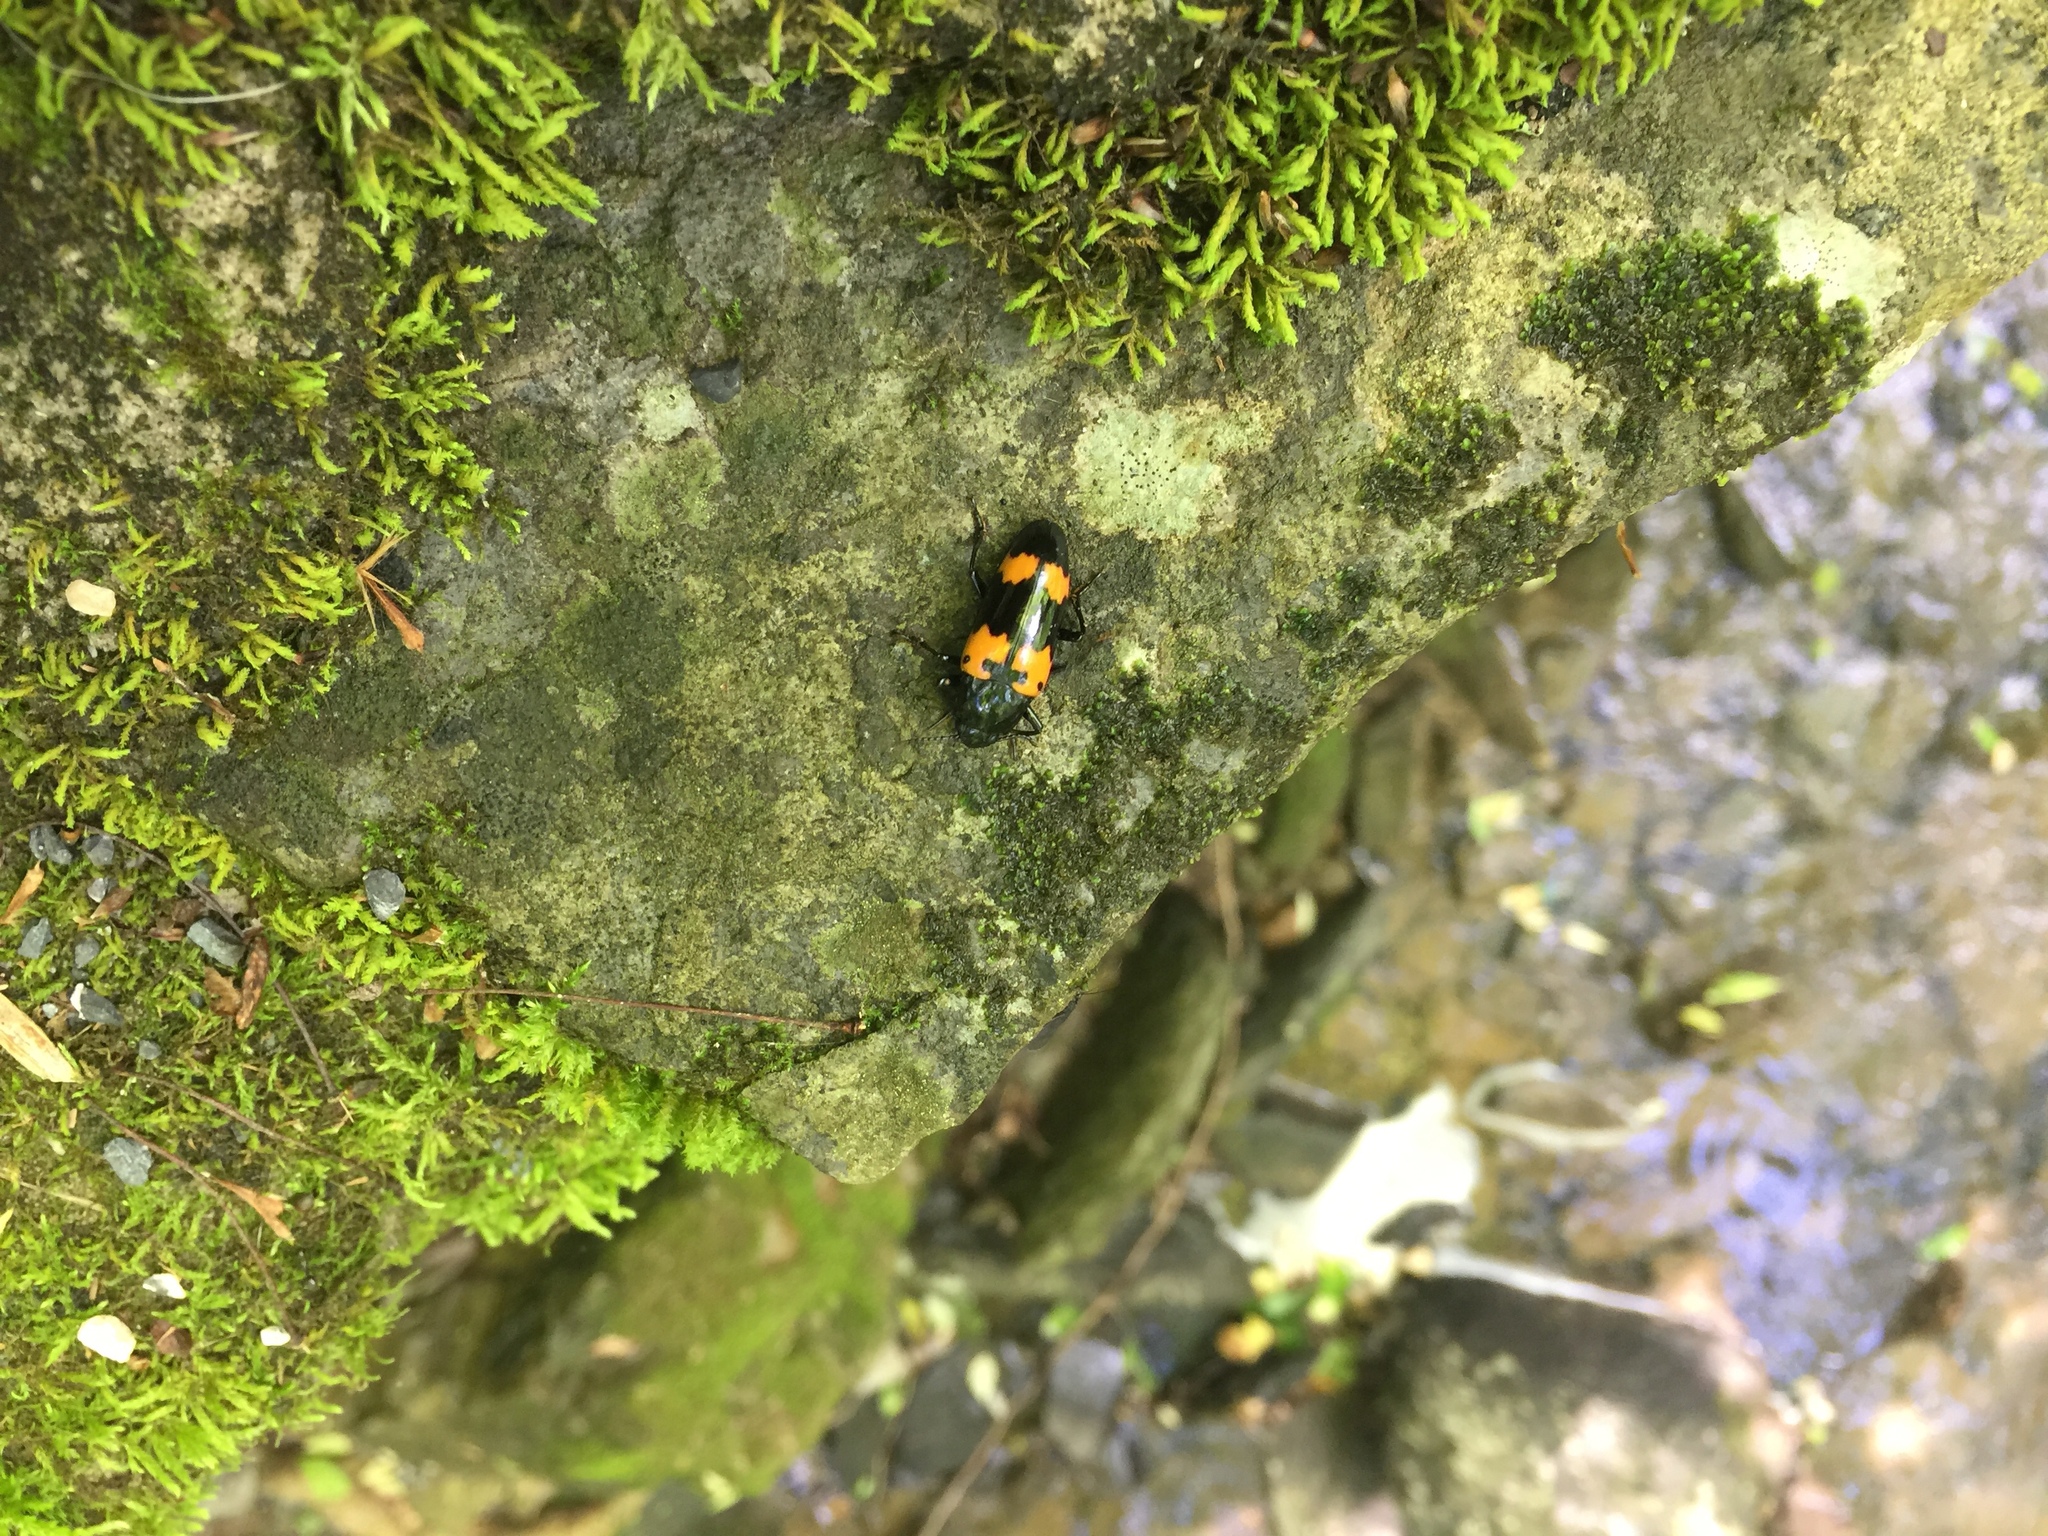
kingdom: Animalia
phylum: Arthropoda
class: Insecta
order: Coleoptera
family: Erotylidae
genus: Megalodacne
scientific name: Megalodacne heros
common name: Pleasing fungus beetle
